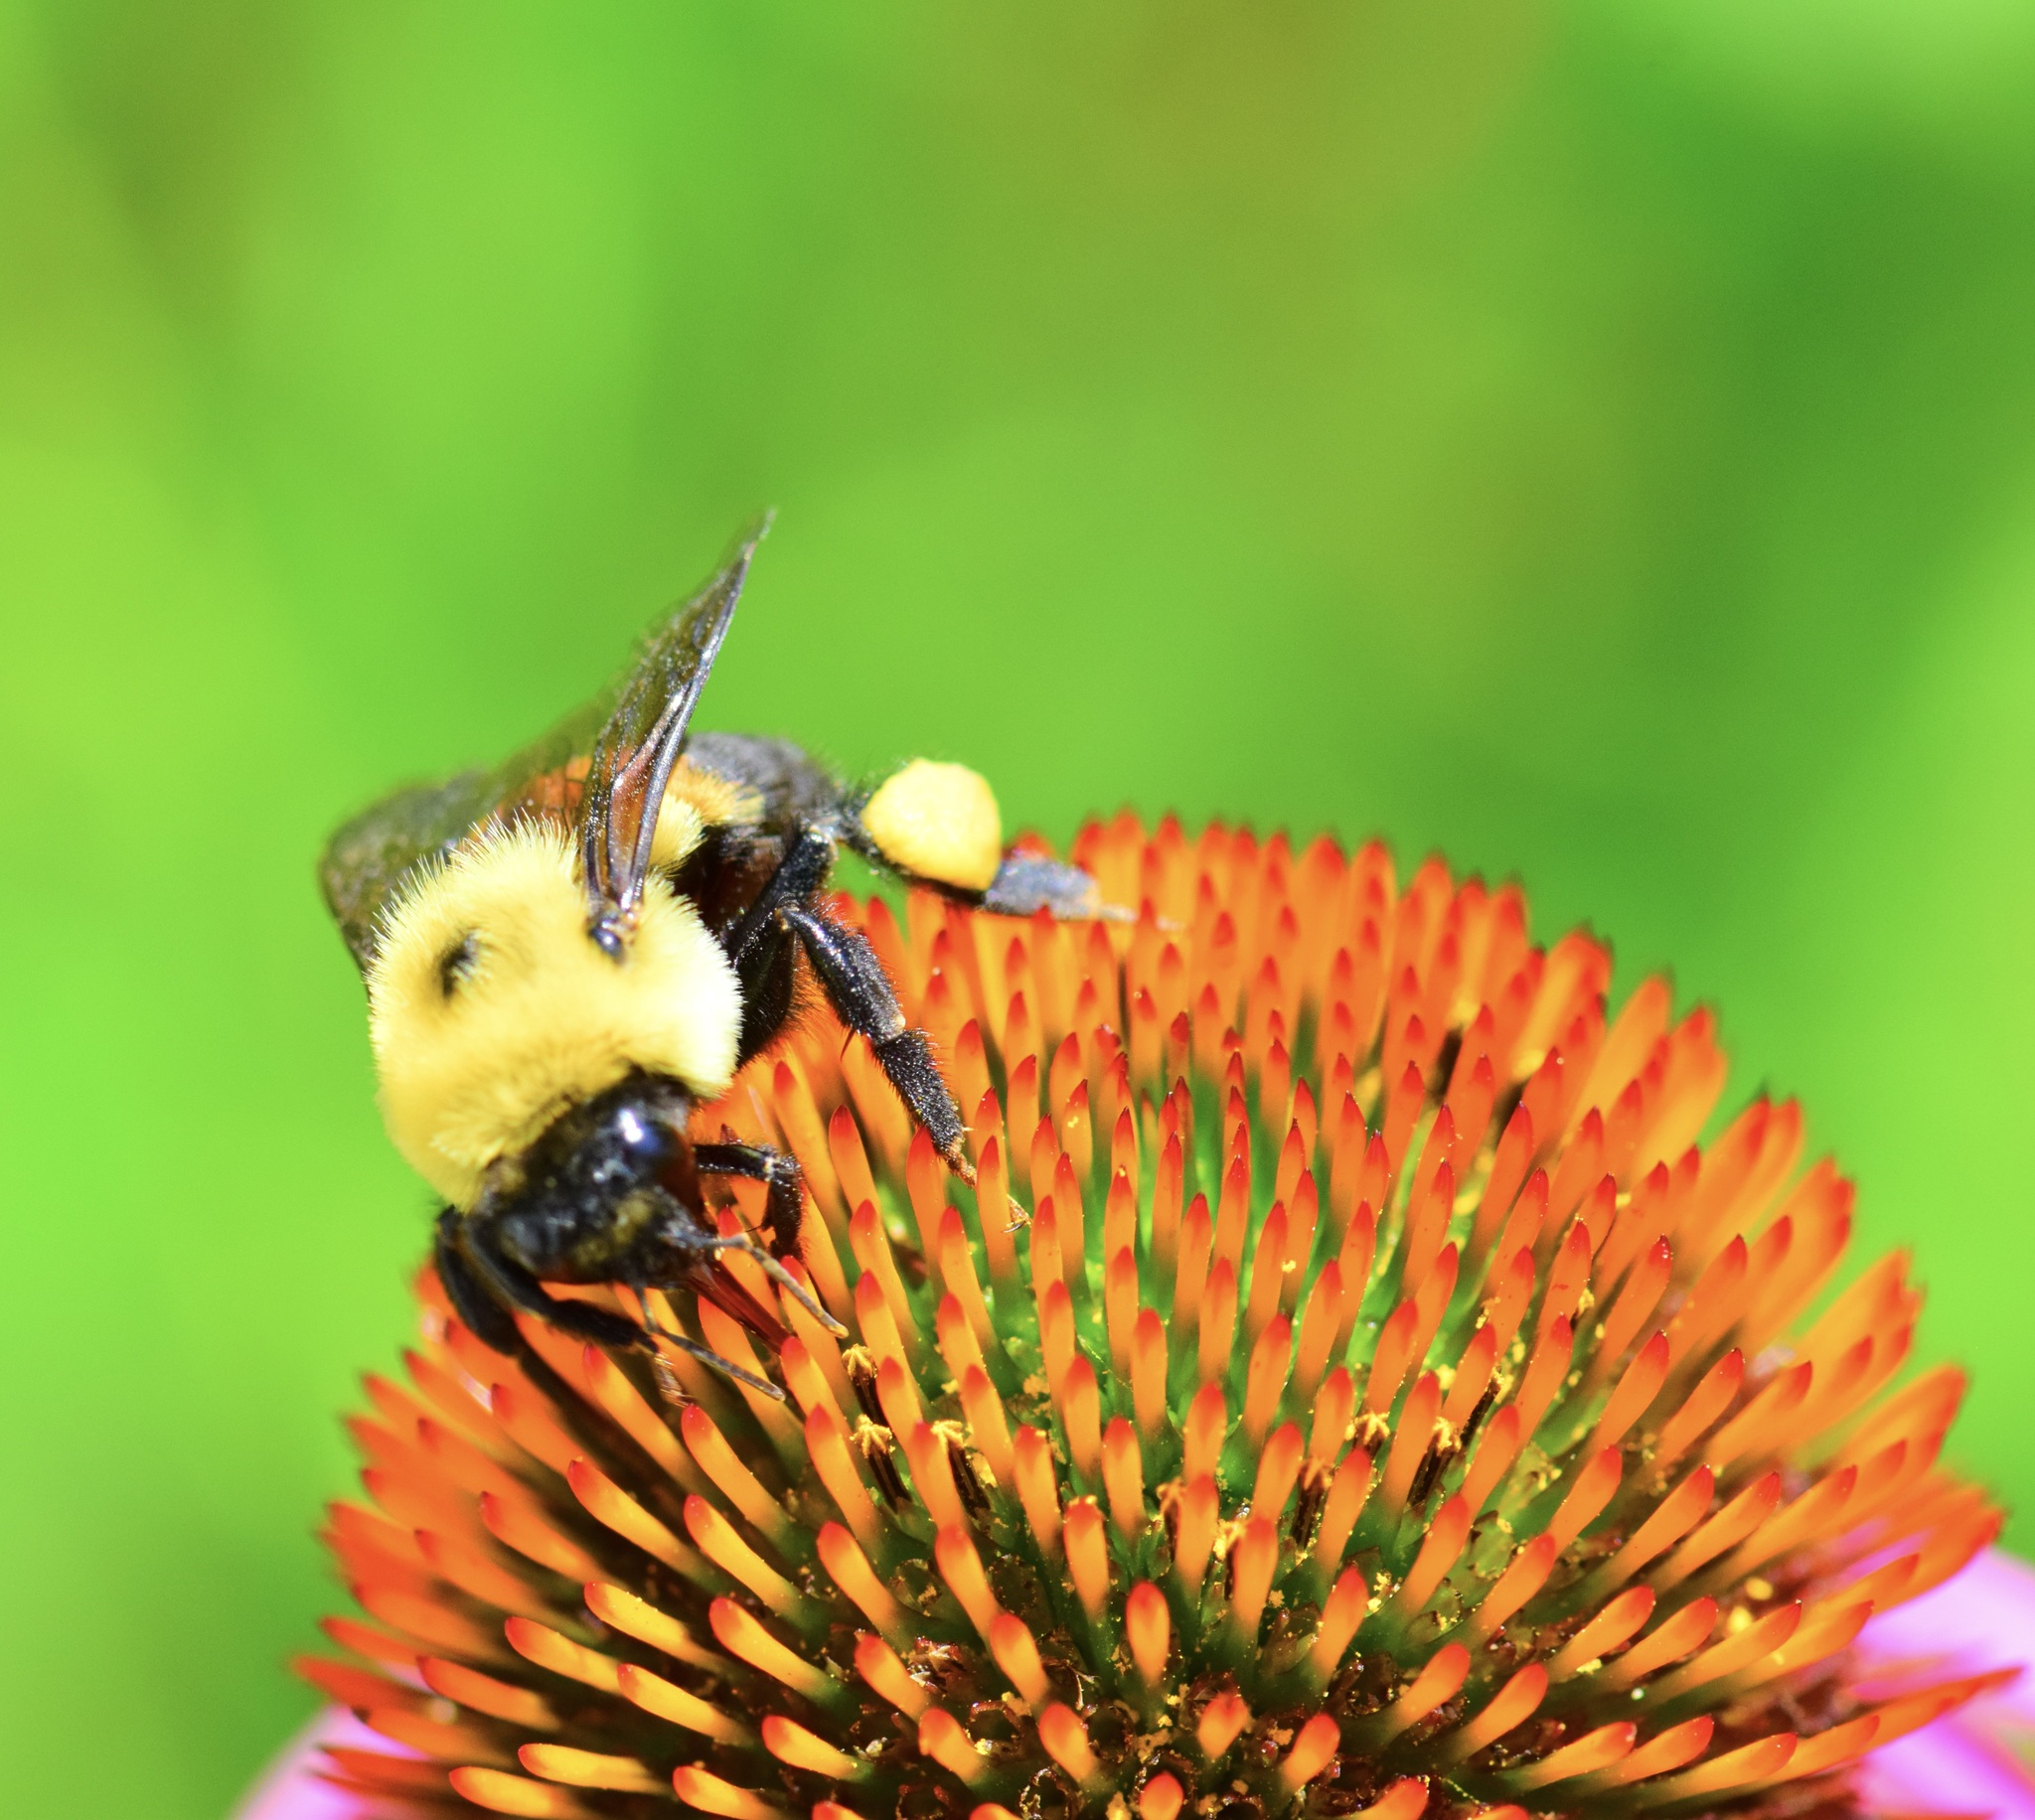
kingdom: Animalia
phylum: Arthropoda
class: Insecta
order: Hymenoptera
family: Apidae
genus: Bombus
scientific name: Bombus griseocollis
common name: Brown-belted bumble bee
